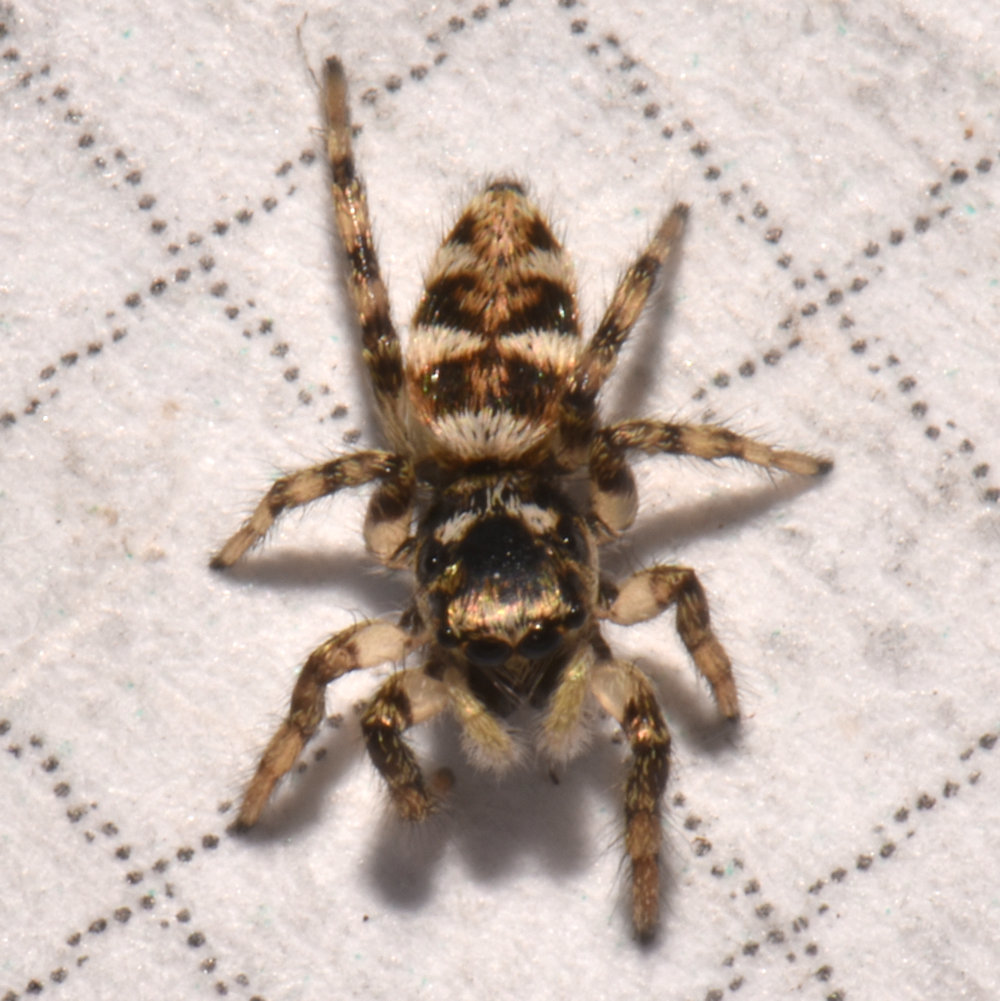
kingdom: Animalia
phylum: Arthropoda
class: Arachnida
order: Araneae
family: Salticidae
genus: Salticus
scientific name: Salticus scenicus
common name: Zebra jumper
